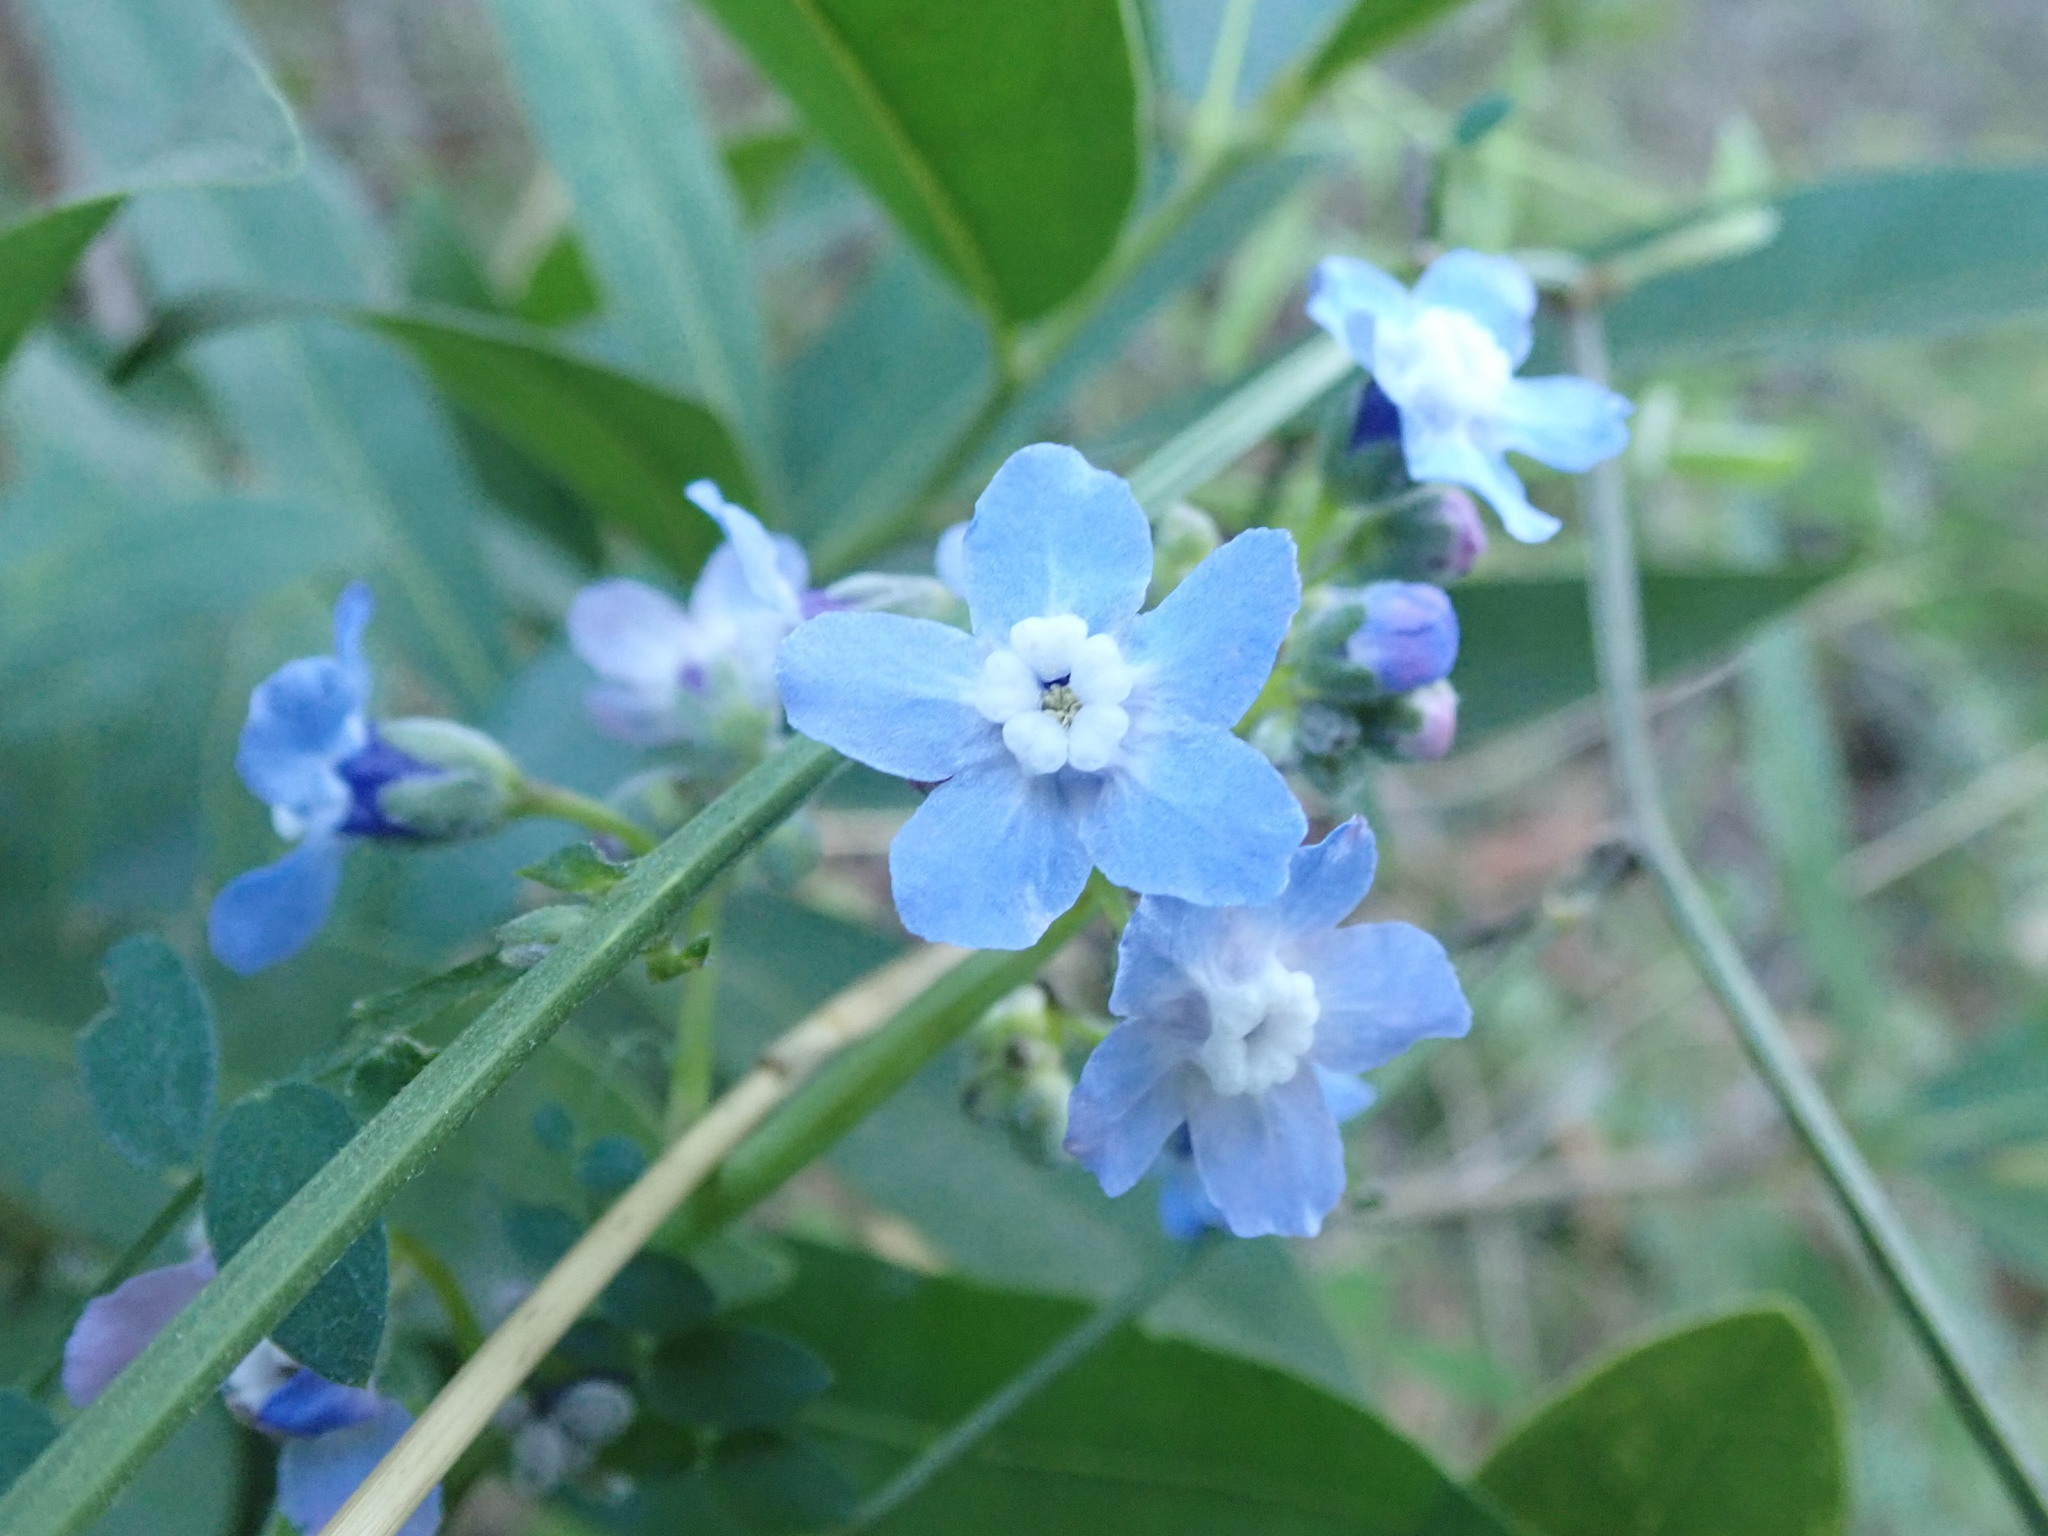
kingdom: Plantae
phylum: Tracheophyta
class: Magnoliopsida
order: Boraginales
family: Boraginaceae
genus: Adelinia
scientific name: Adelinia grande
